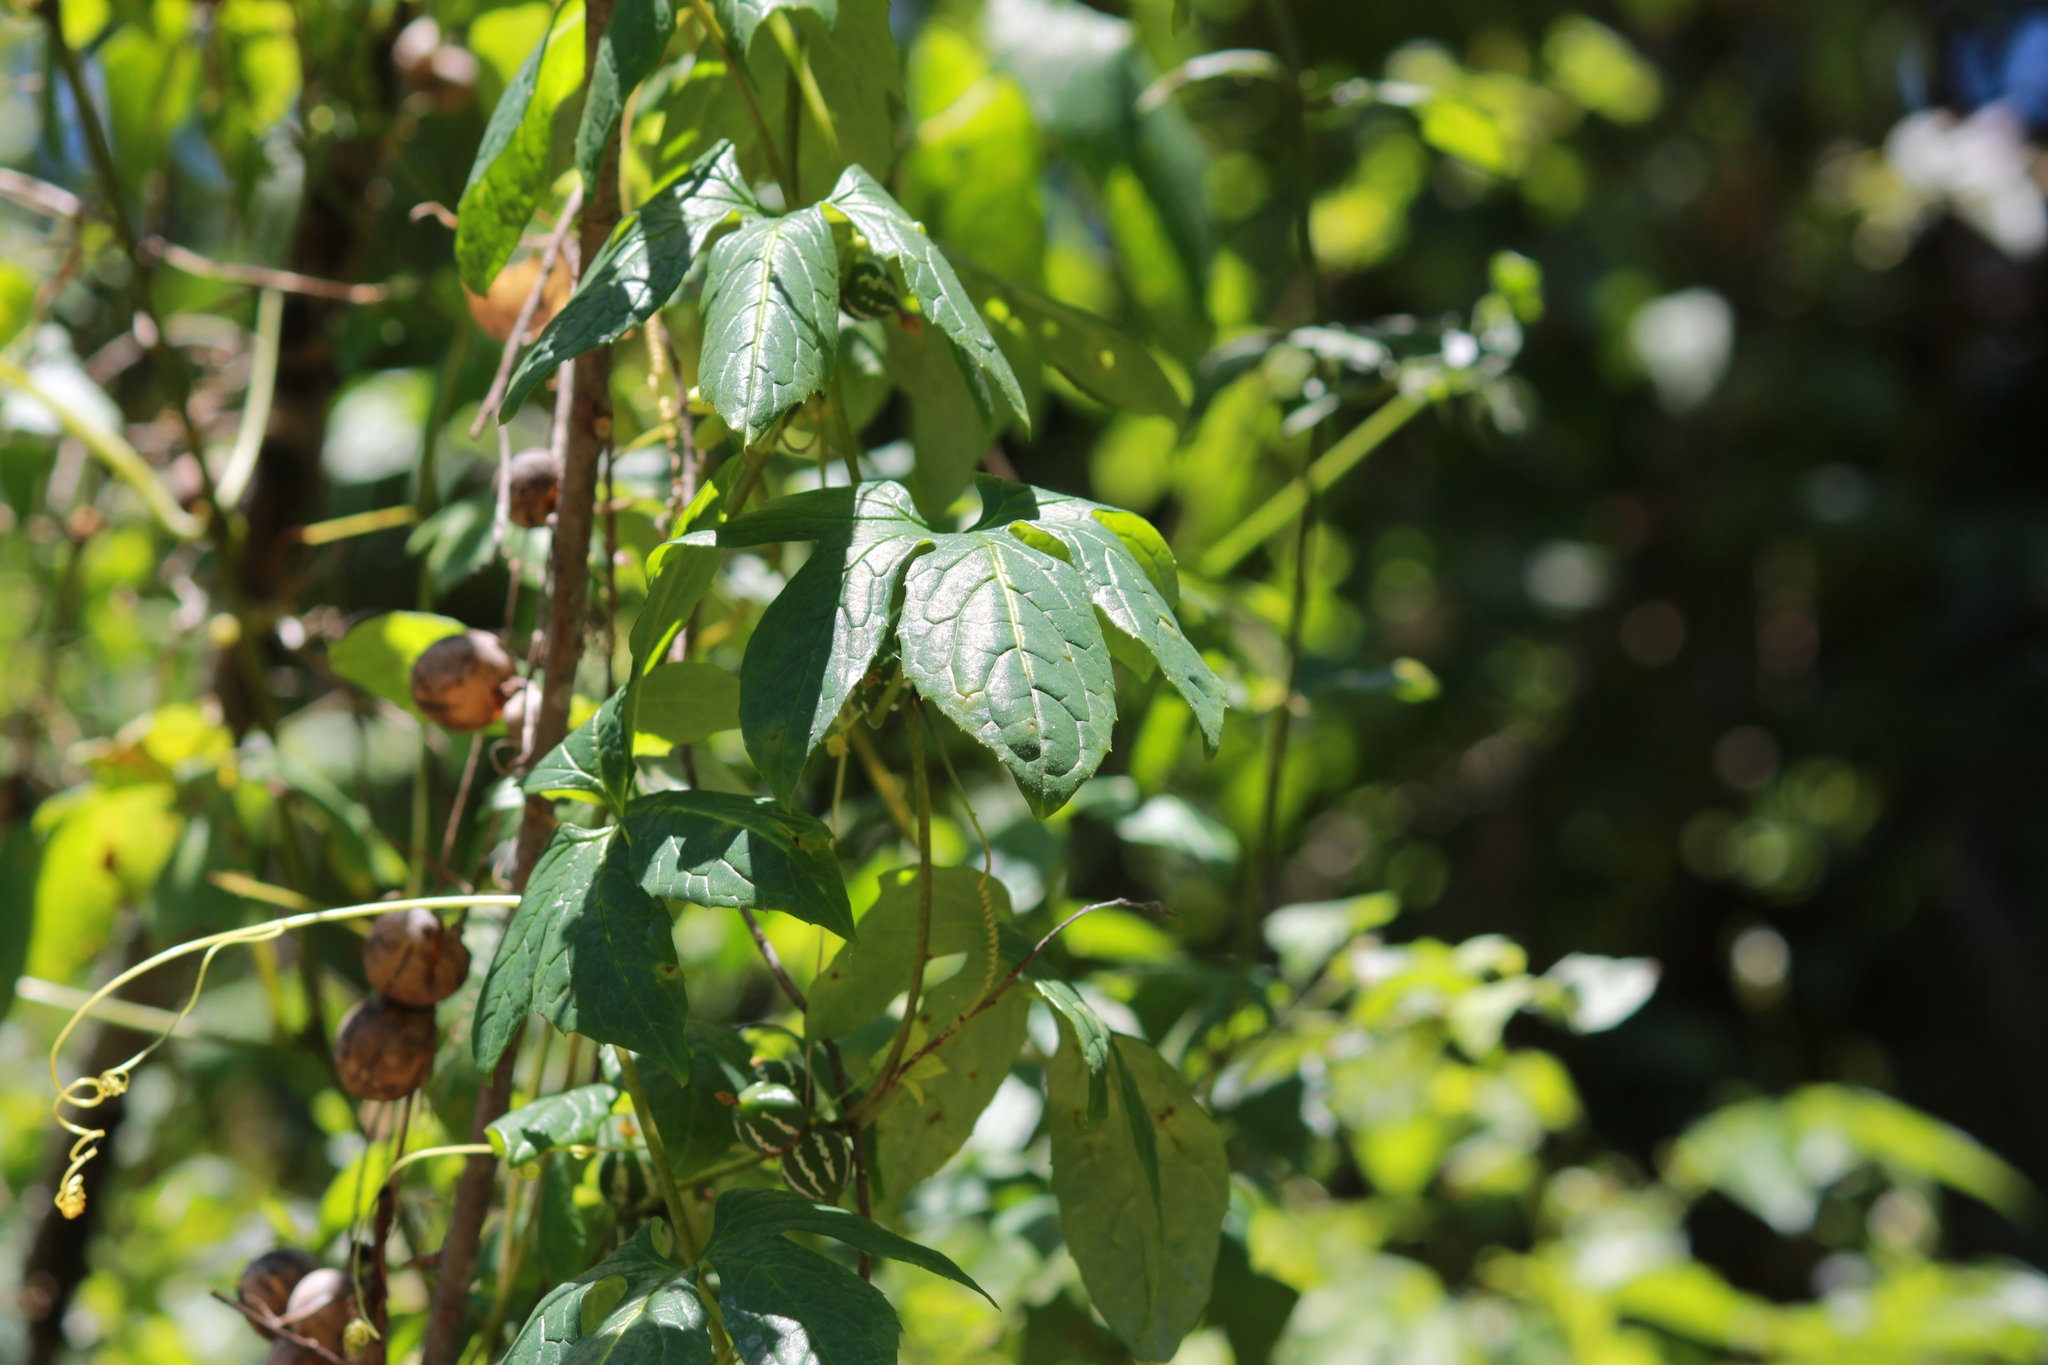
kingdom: Plantae
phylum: Tracheophyta
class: Magnoliopsida
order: Cucurbitales
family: Cucurbitaceae
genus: Diplocyclos
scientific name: Diplocyclos palmatus
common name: Striped-cucumber
